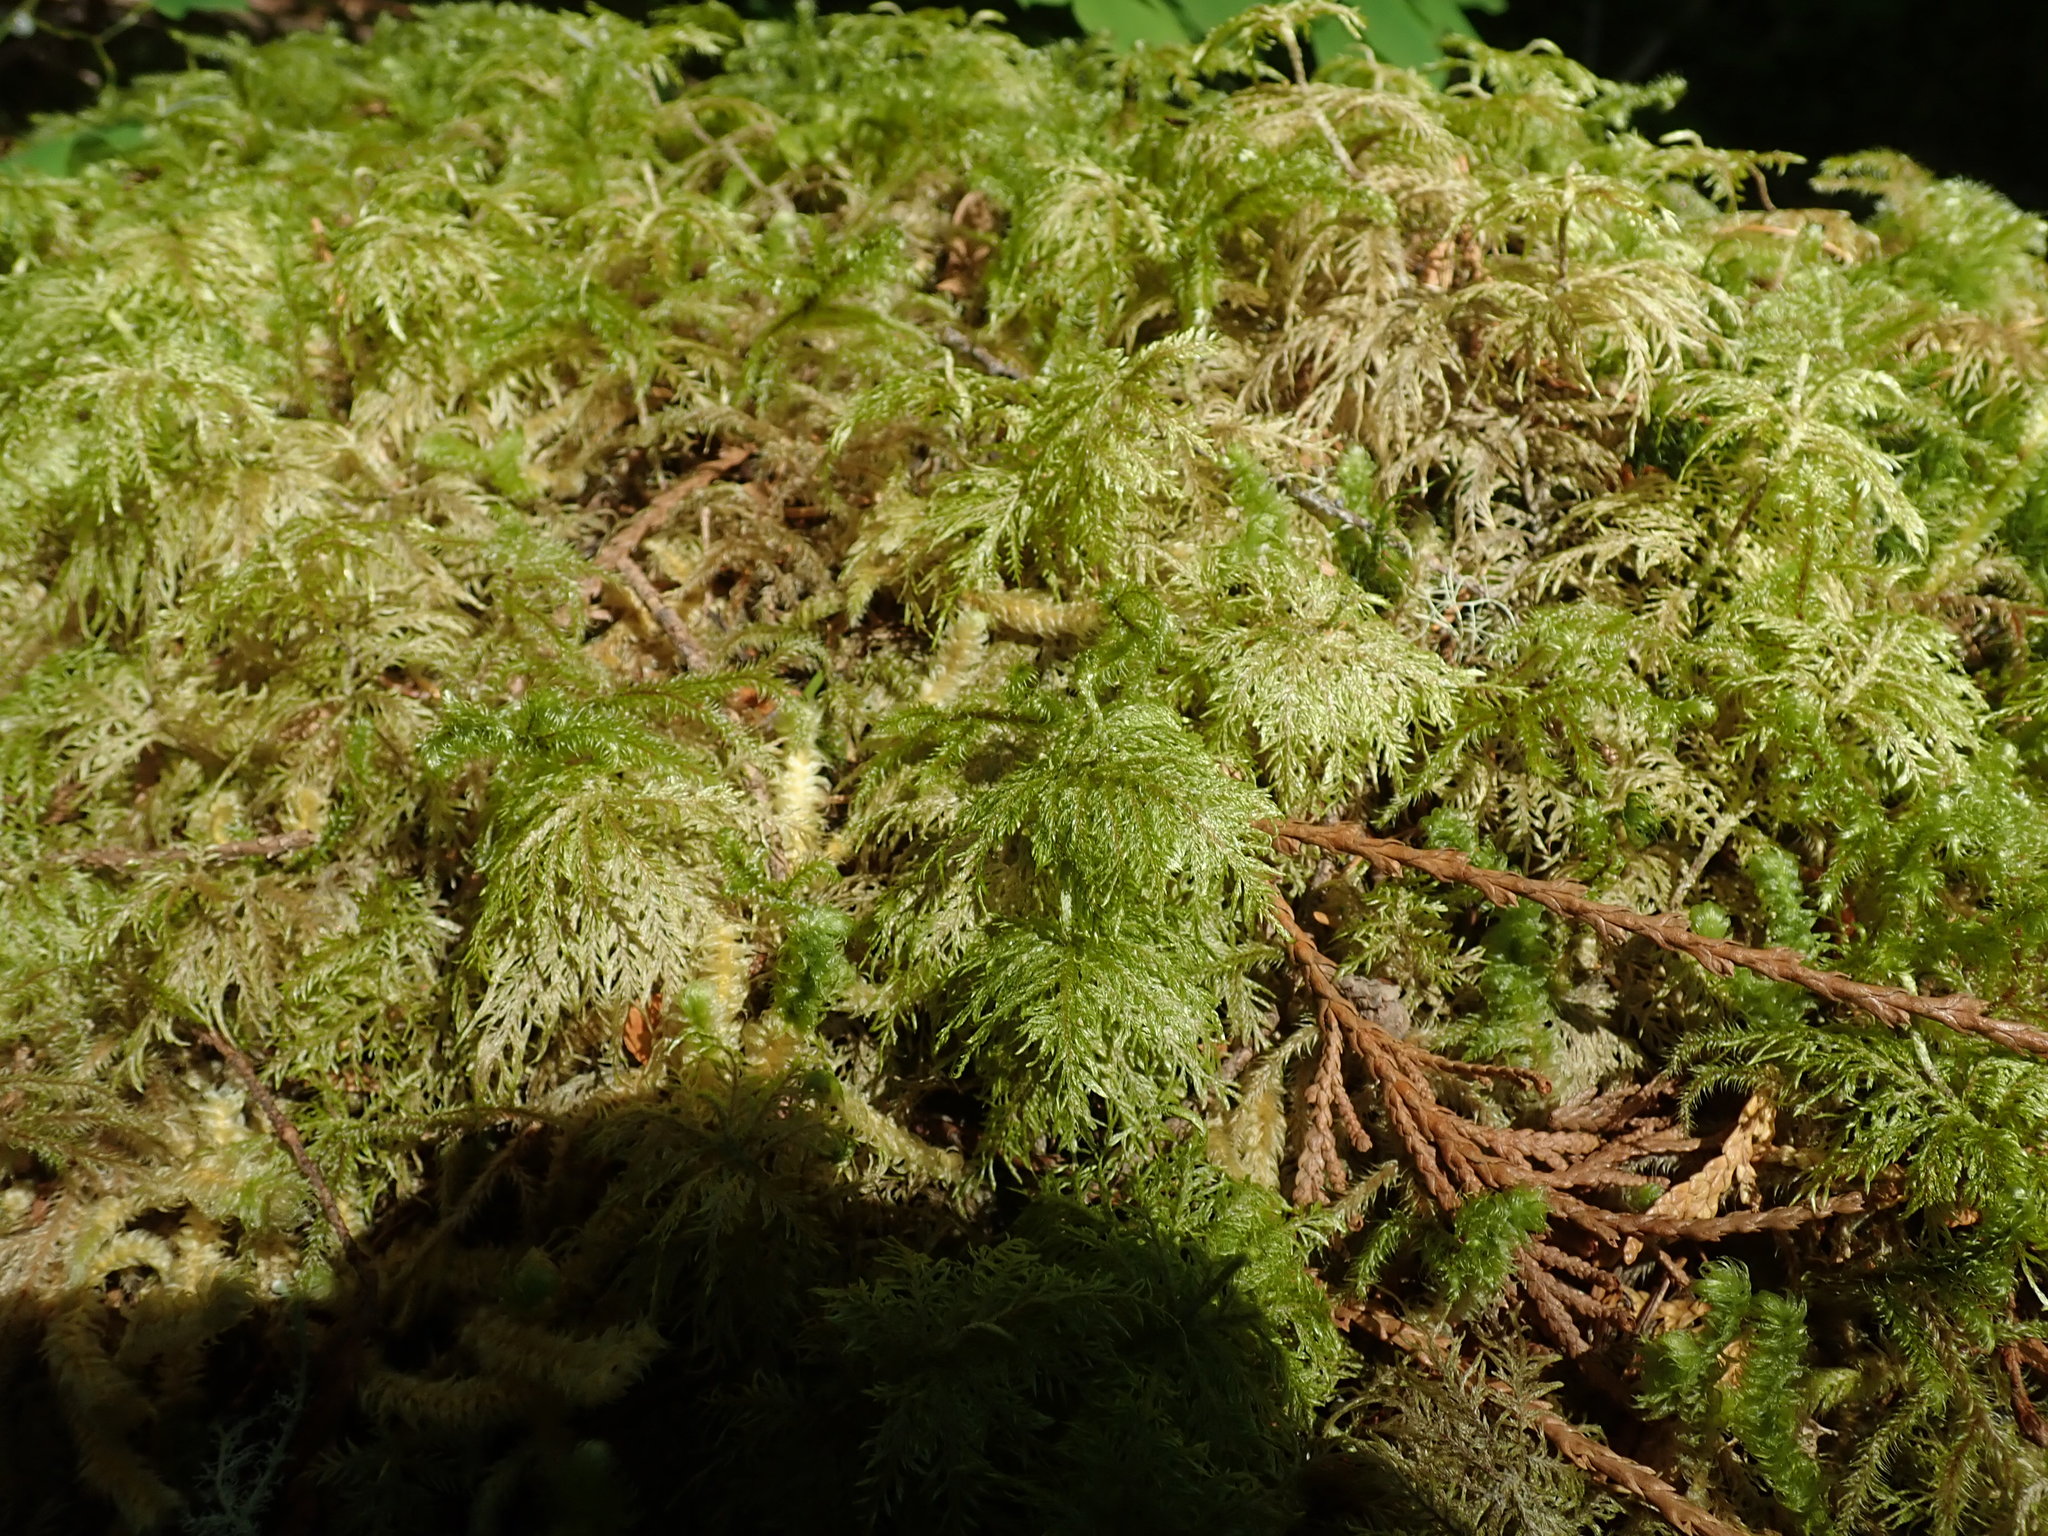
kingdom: Plantae
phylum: Bryophyta
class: Bryopsida
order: Hypnales
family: Hylocomiaceae
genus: Hylocomium
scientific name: Hylocomium splendens
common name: Stairstep moss
